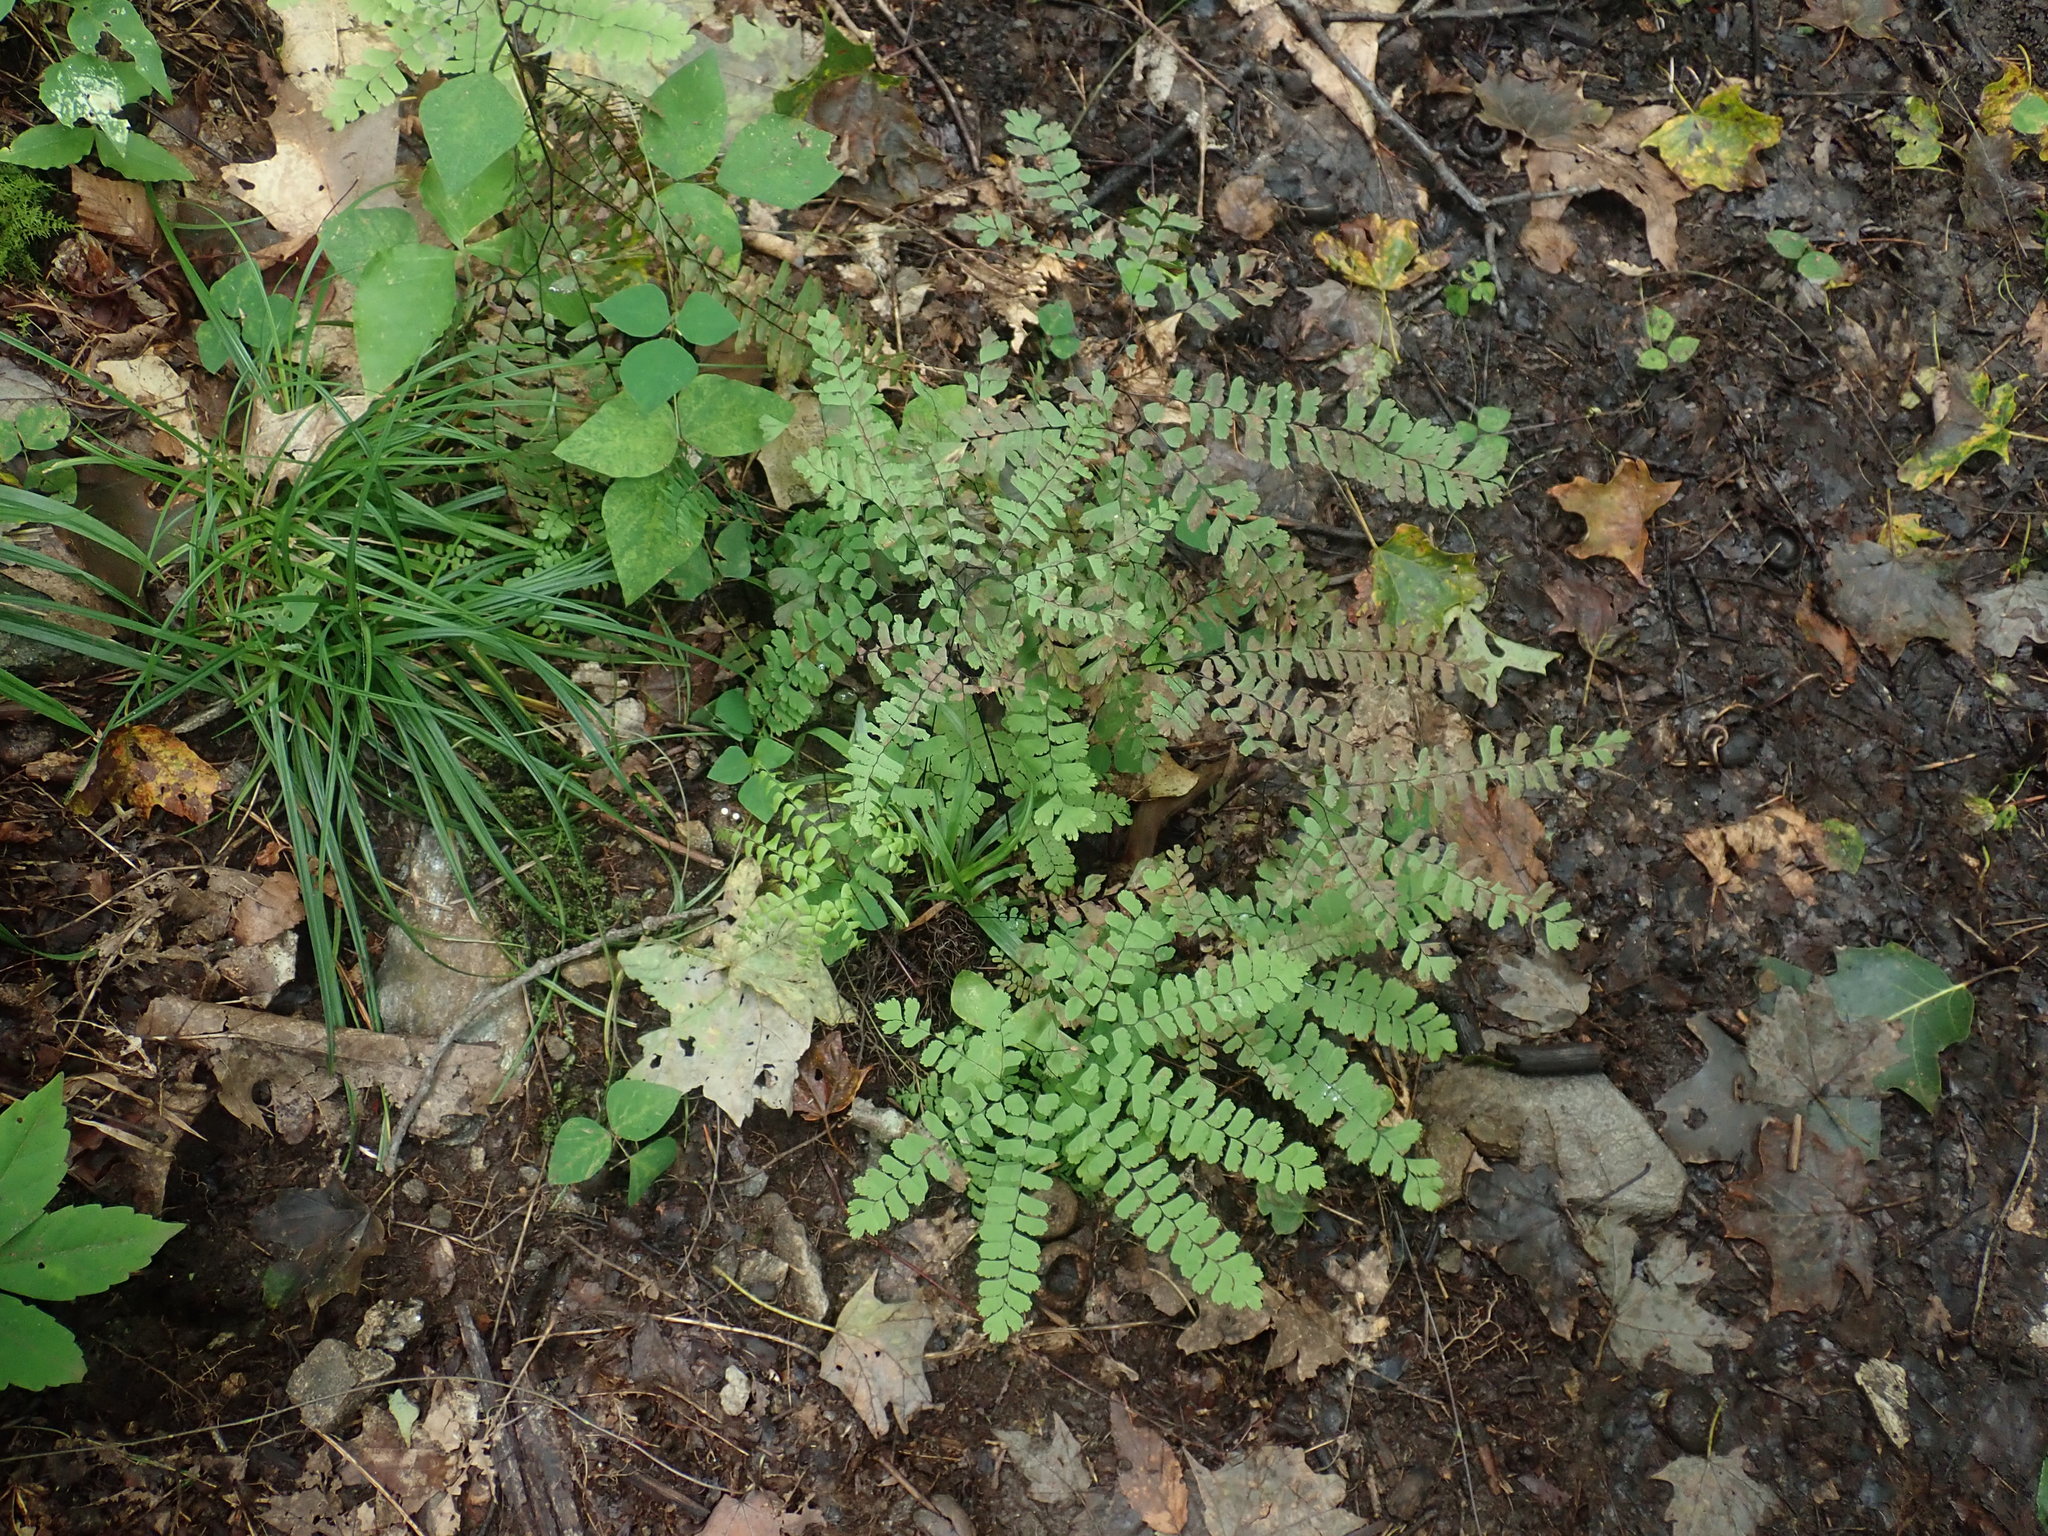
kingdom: Plantae
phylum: Tracheophyta
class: Polypodiopsida
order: Polypodiales
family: Pteridaceae
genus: Adiantum
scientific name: Adiantum pedatum
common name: Five-finger fern
